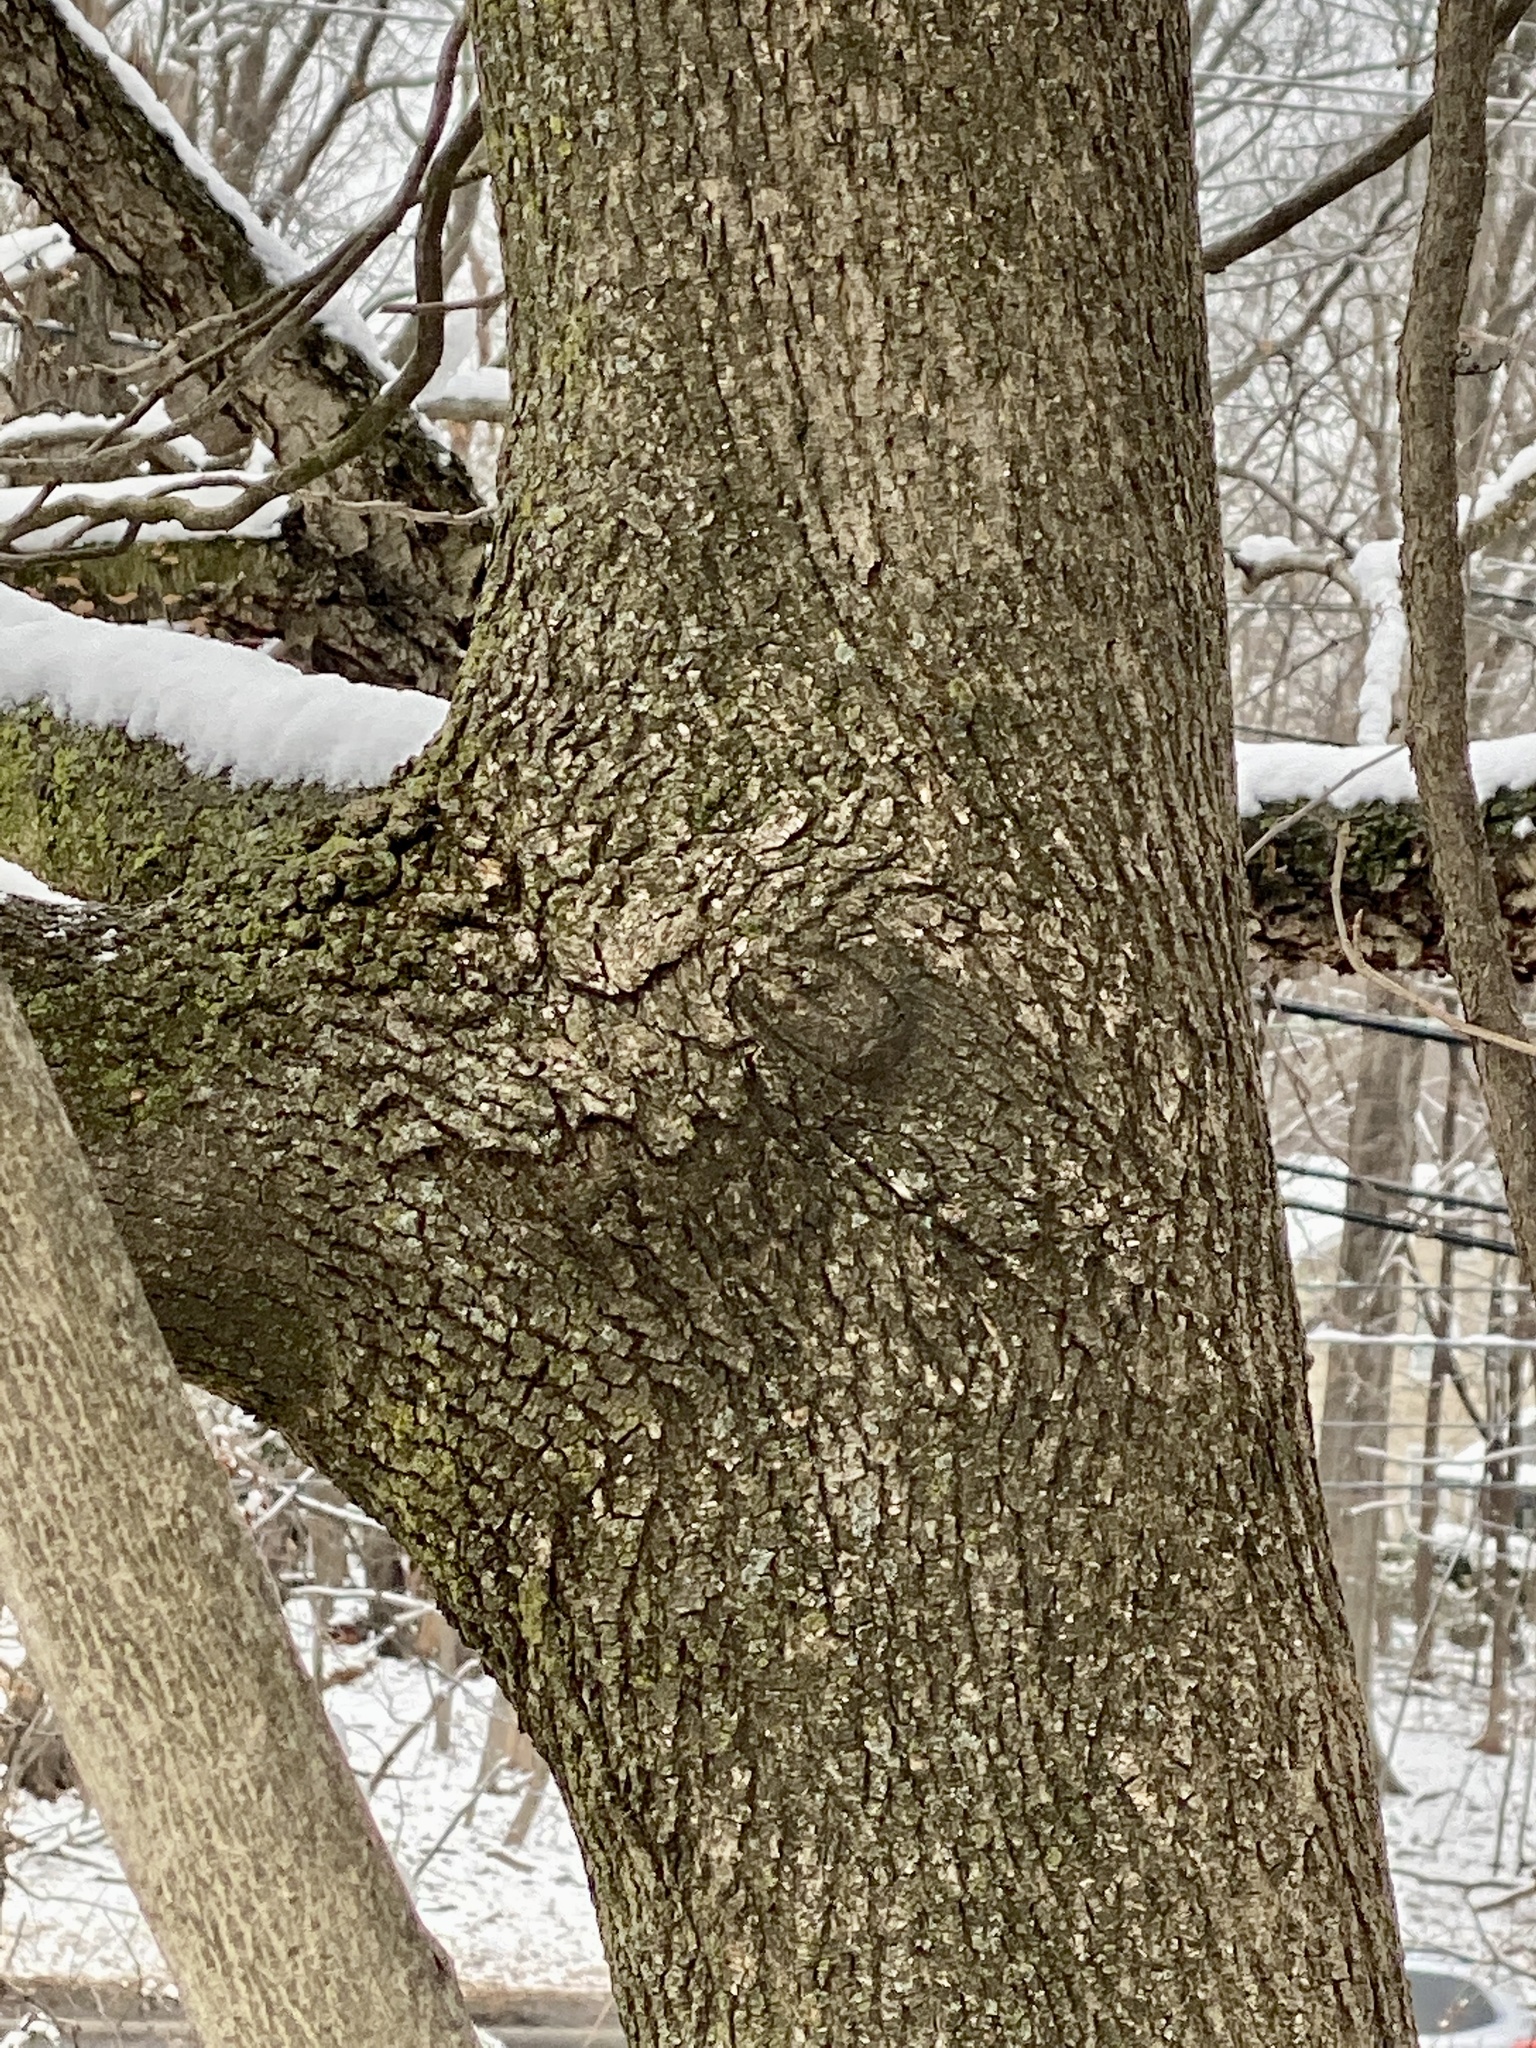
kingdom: Plantae
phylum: Tracheophyta
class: Magnoliopsida
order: Sapindales
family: Sapindaceae
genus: Acer
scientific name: Acer platanoides
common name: Norway maple
